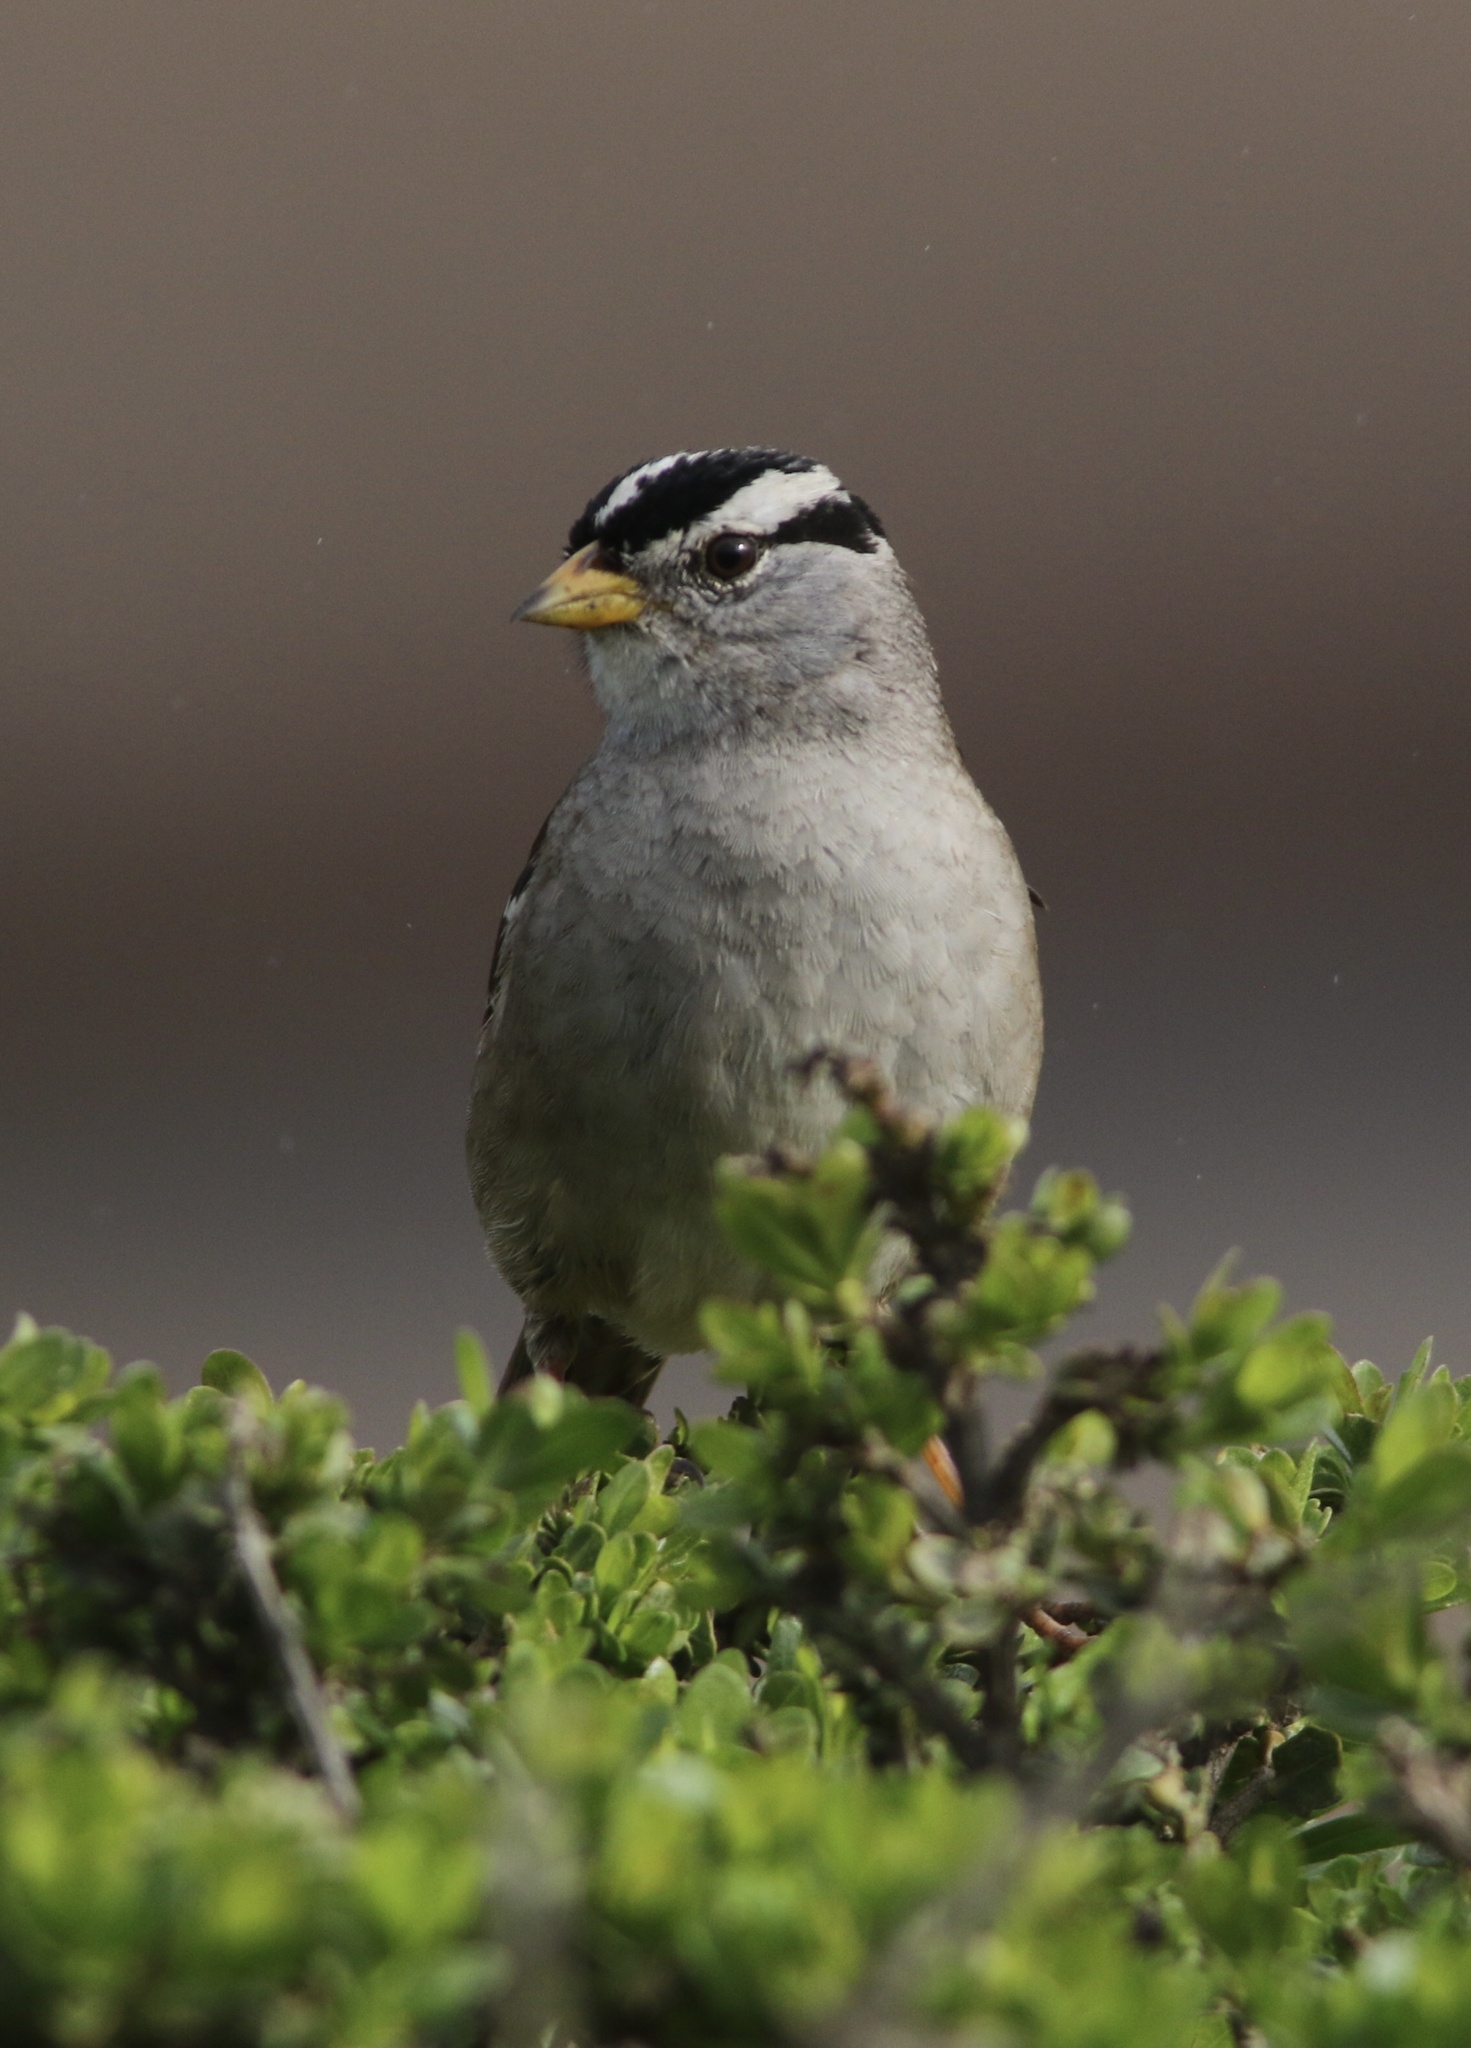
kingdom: Animalia
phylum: Chordata
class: Aves
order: Passeriformes
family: Passerellidae
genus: Zonotrichia
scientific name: Zonotrichia leucophrys
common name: White-crowned sparrow
